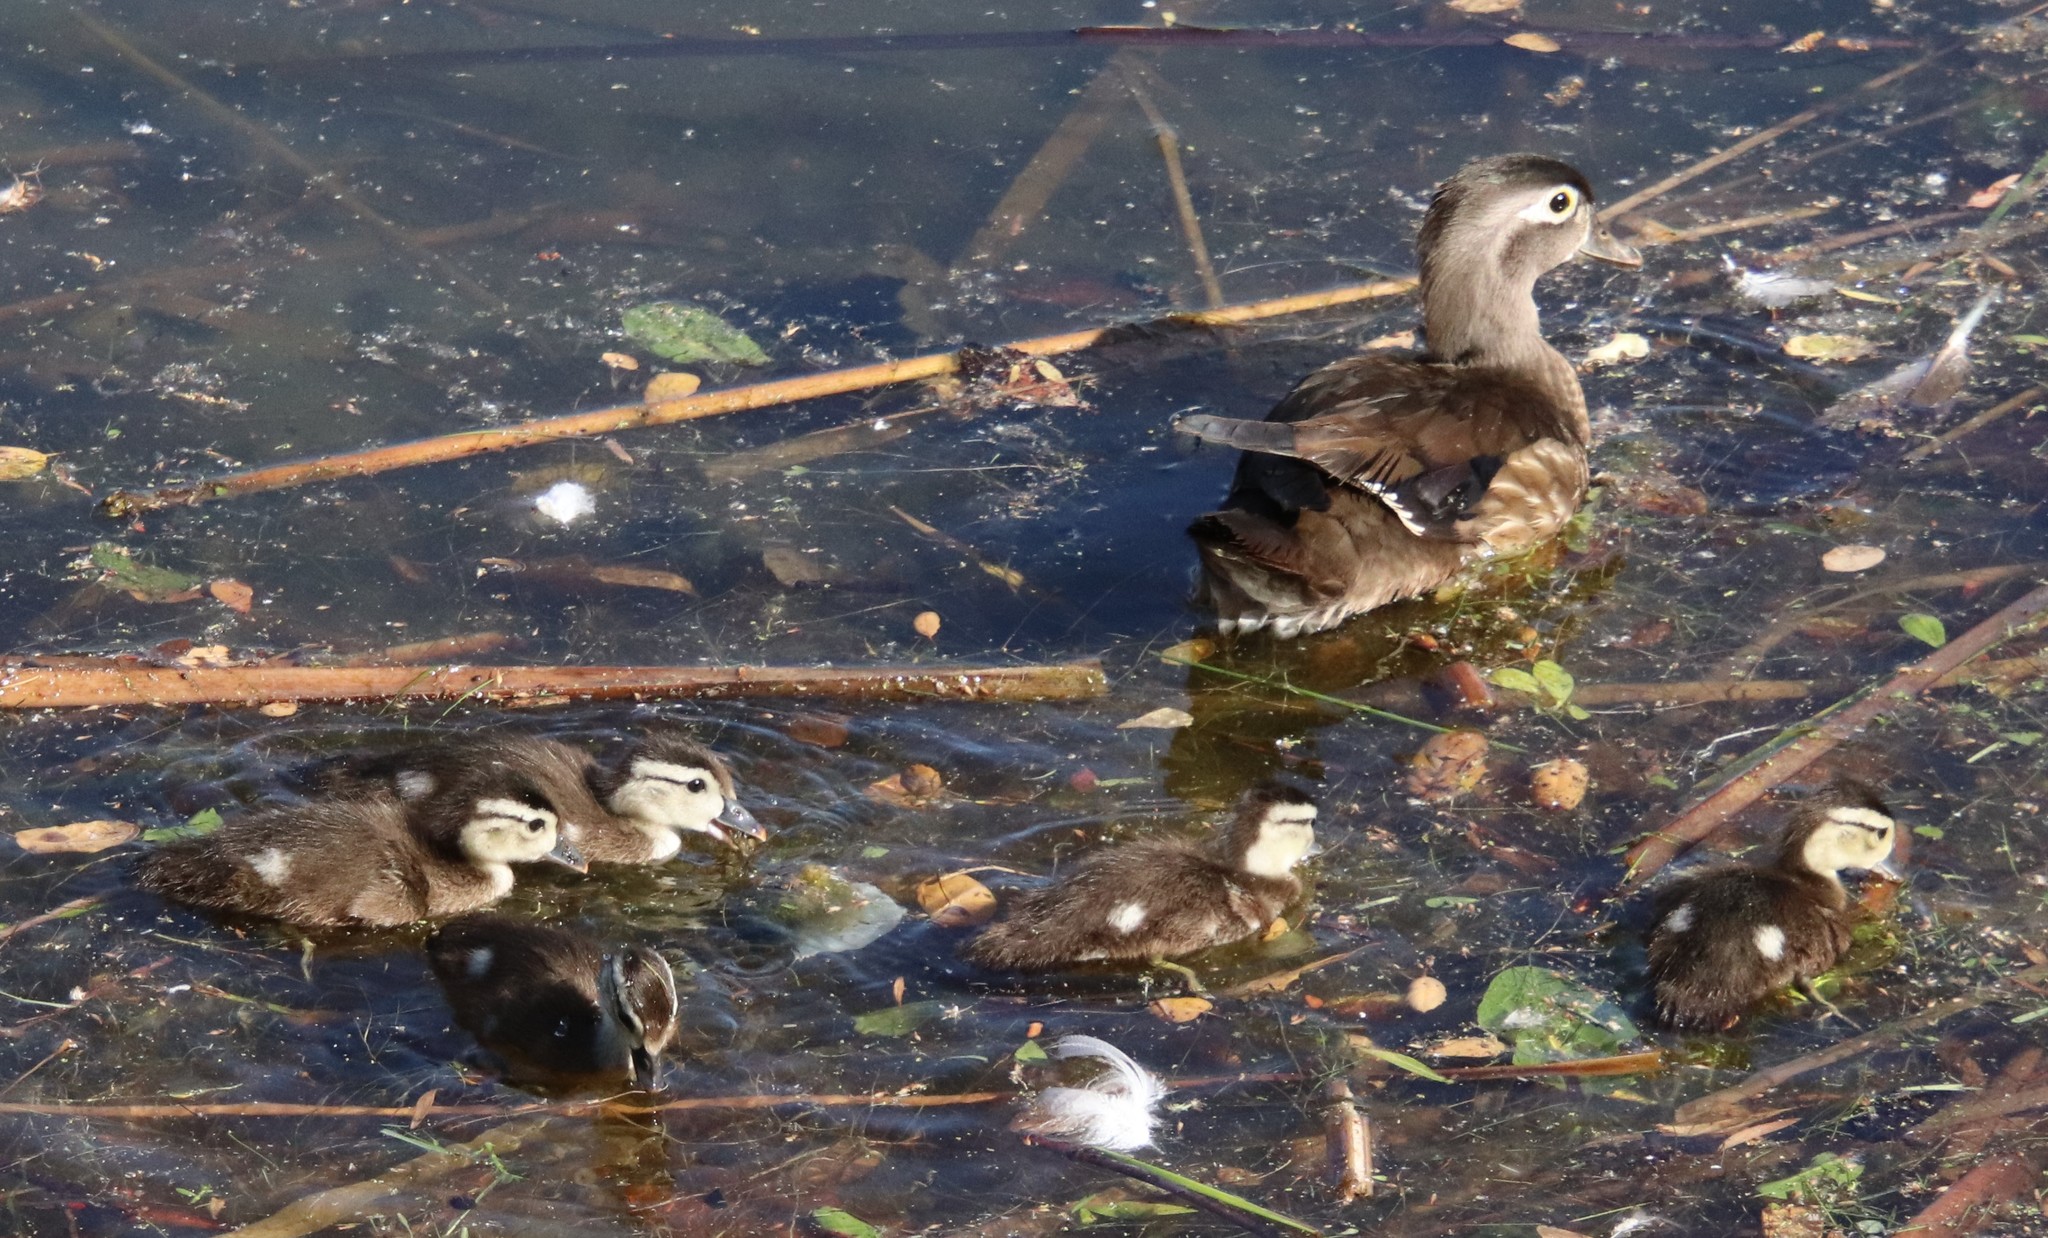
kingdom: Animalia
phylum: Chordata
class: Aves
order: Anseriformes
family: Anatidae
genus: Aix
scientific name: Aix sponsa
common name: Wood duck
